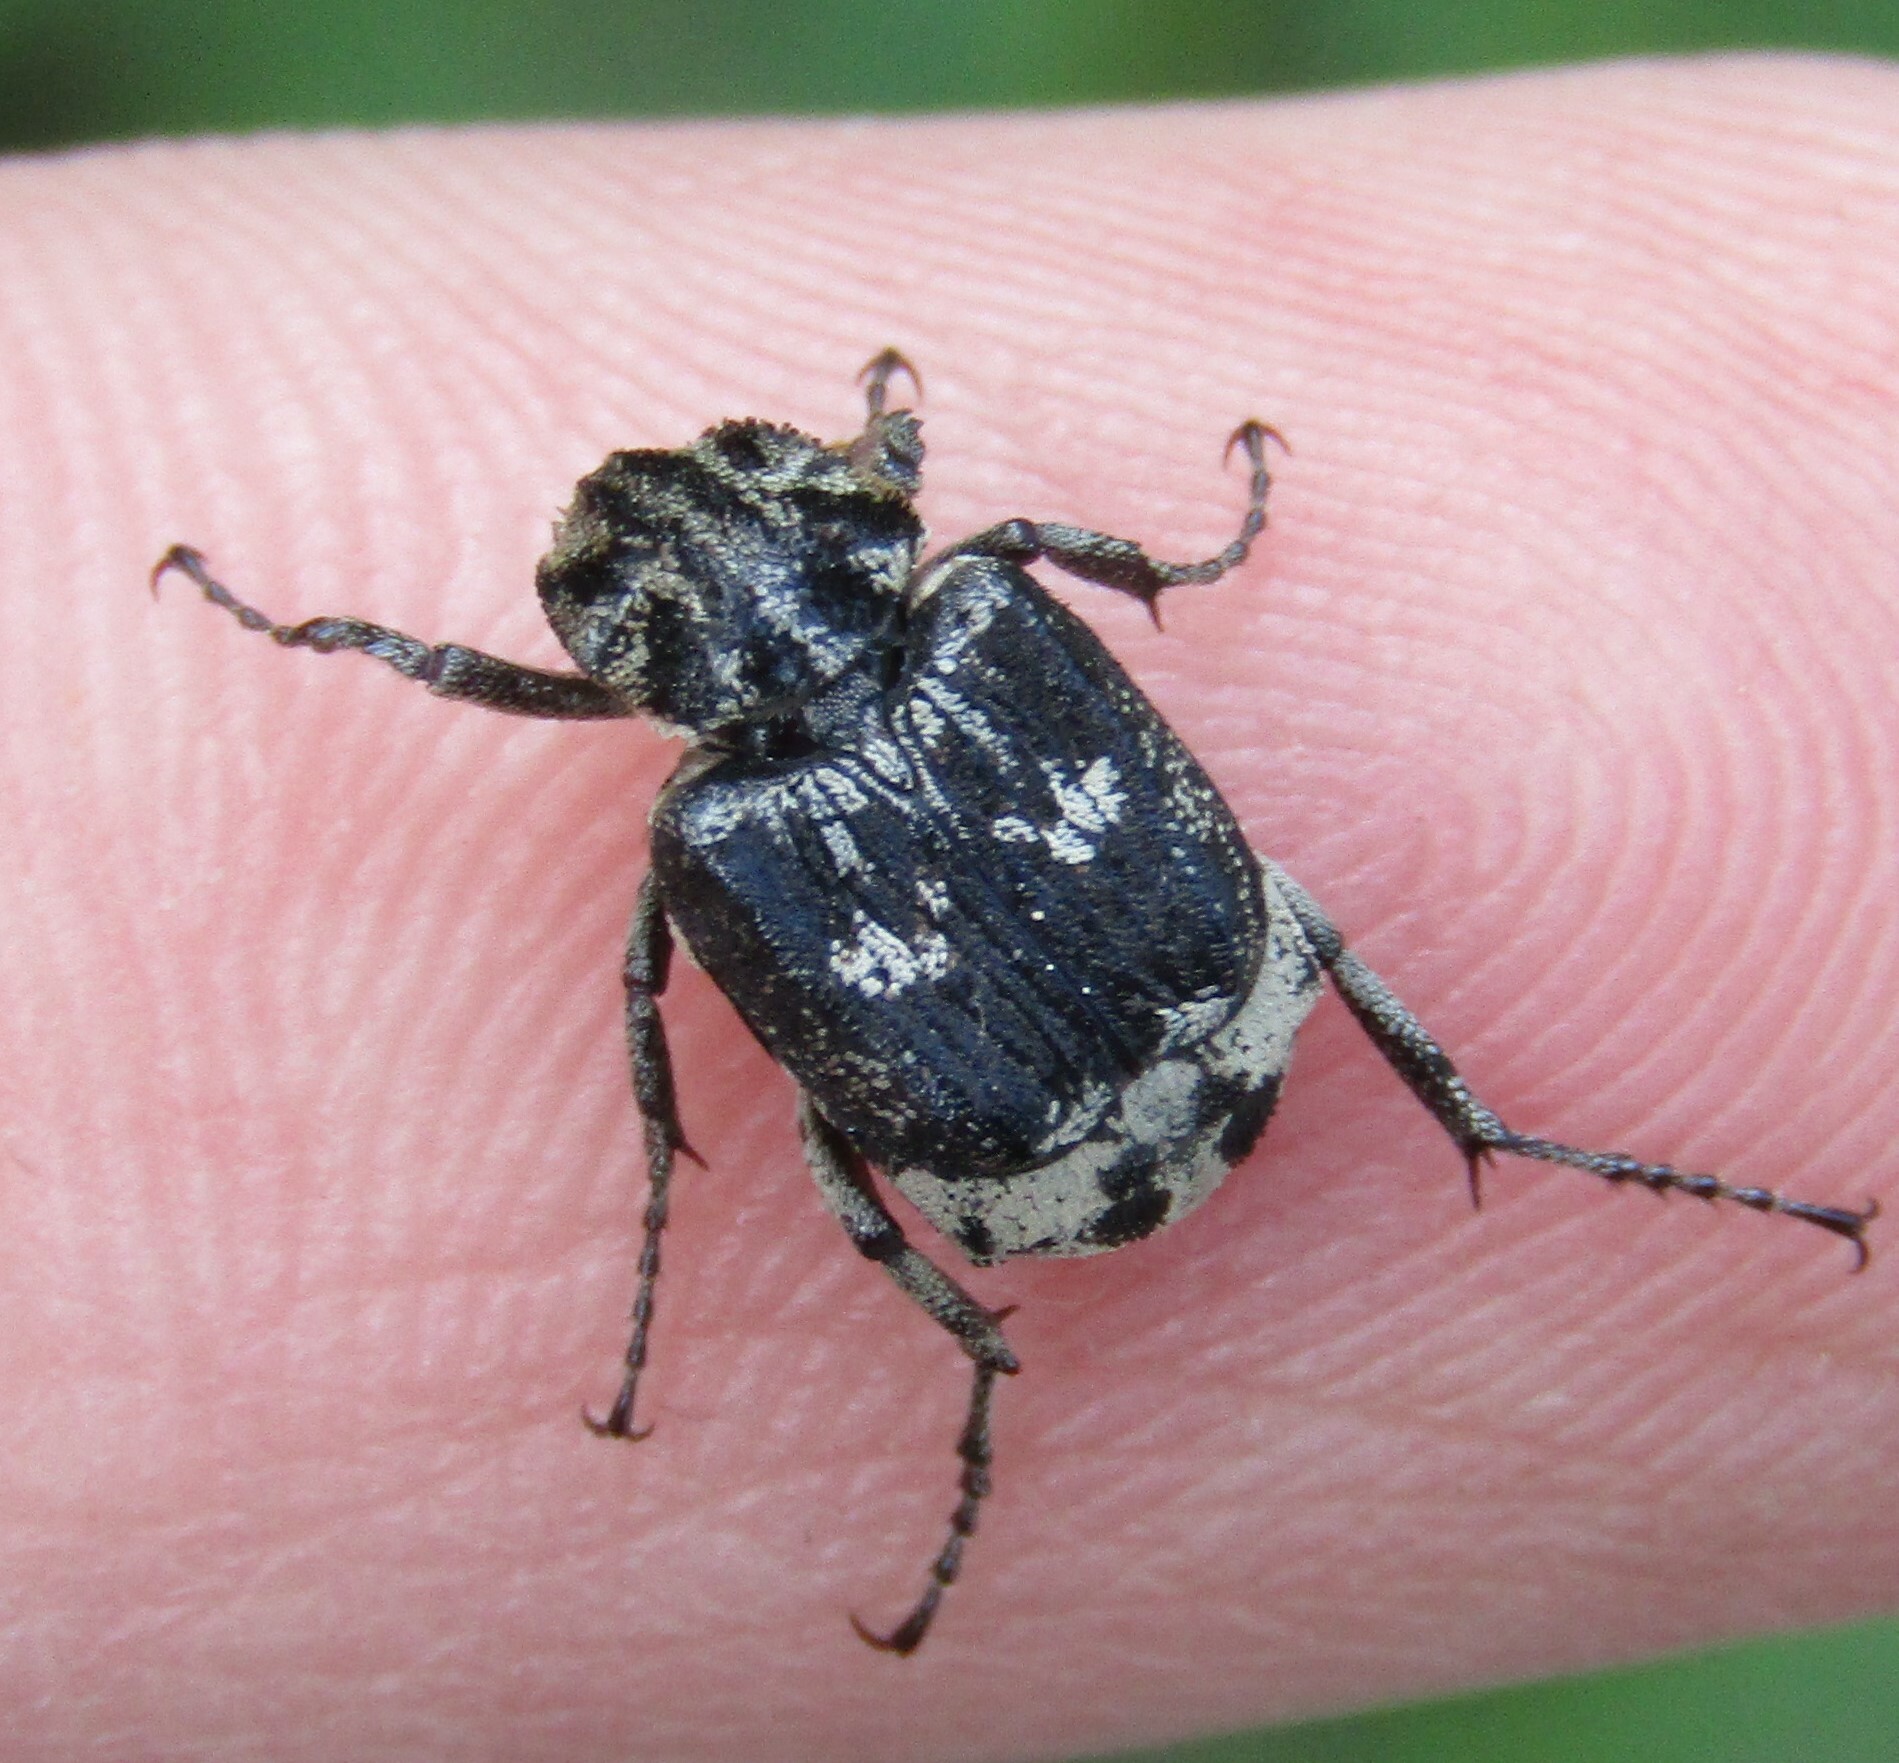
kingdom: Animalia
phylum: Arthropoda
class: Insecta
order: Coleoptera
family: Scarabaeidae
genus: Valgus
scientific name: Valgus hemipterus
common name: Bug flower chafer
